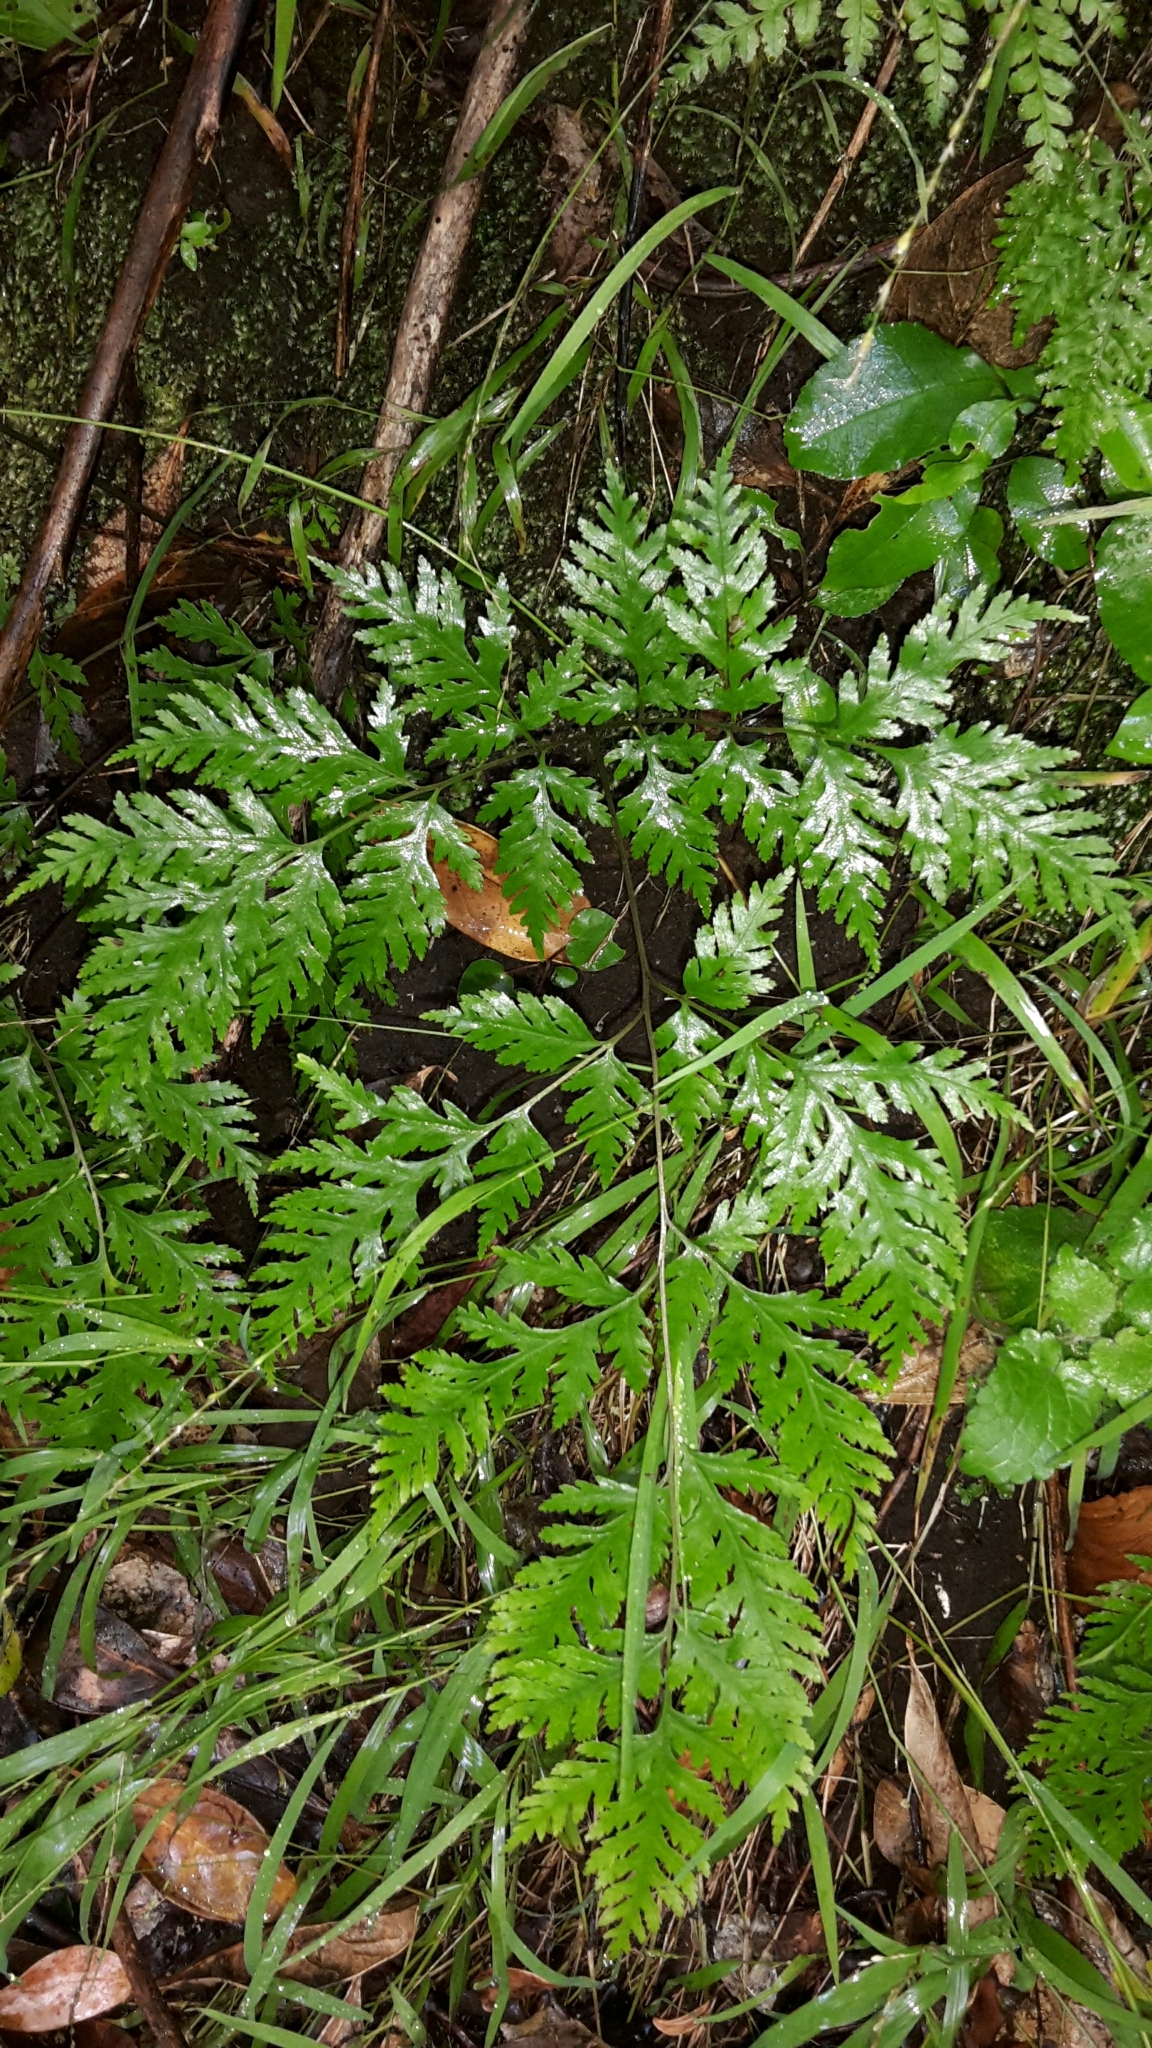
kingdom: Plantae
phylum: Tracheophyta
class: Polypodiopsida
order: Polypodiales
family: Pteridaceae
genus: Pteris
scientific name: Pteris macilenta
